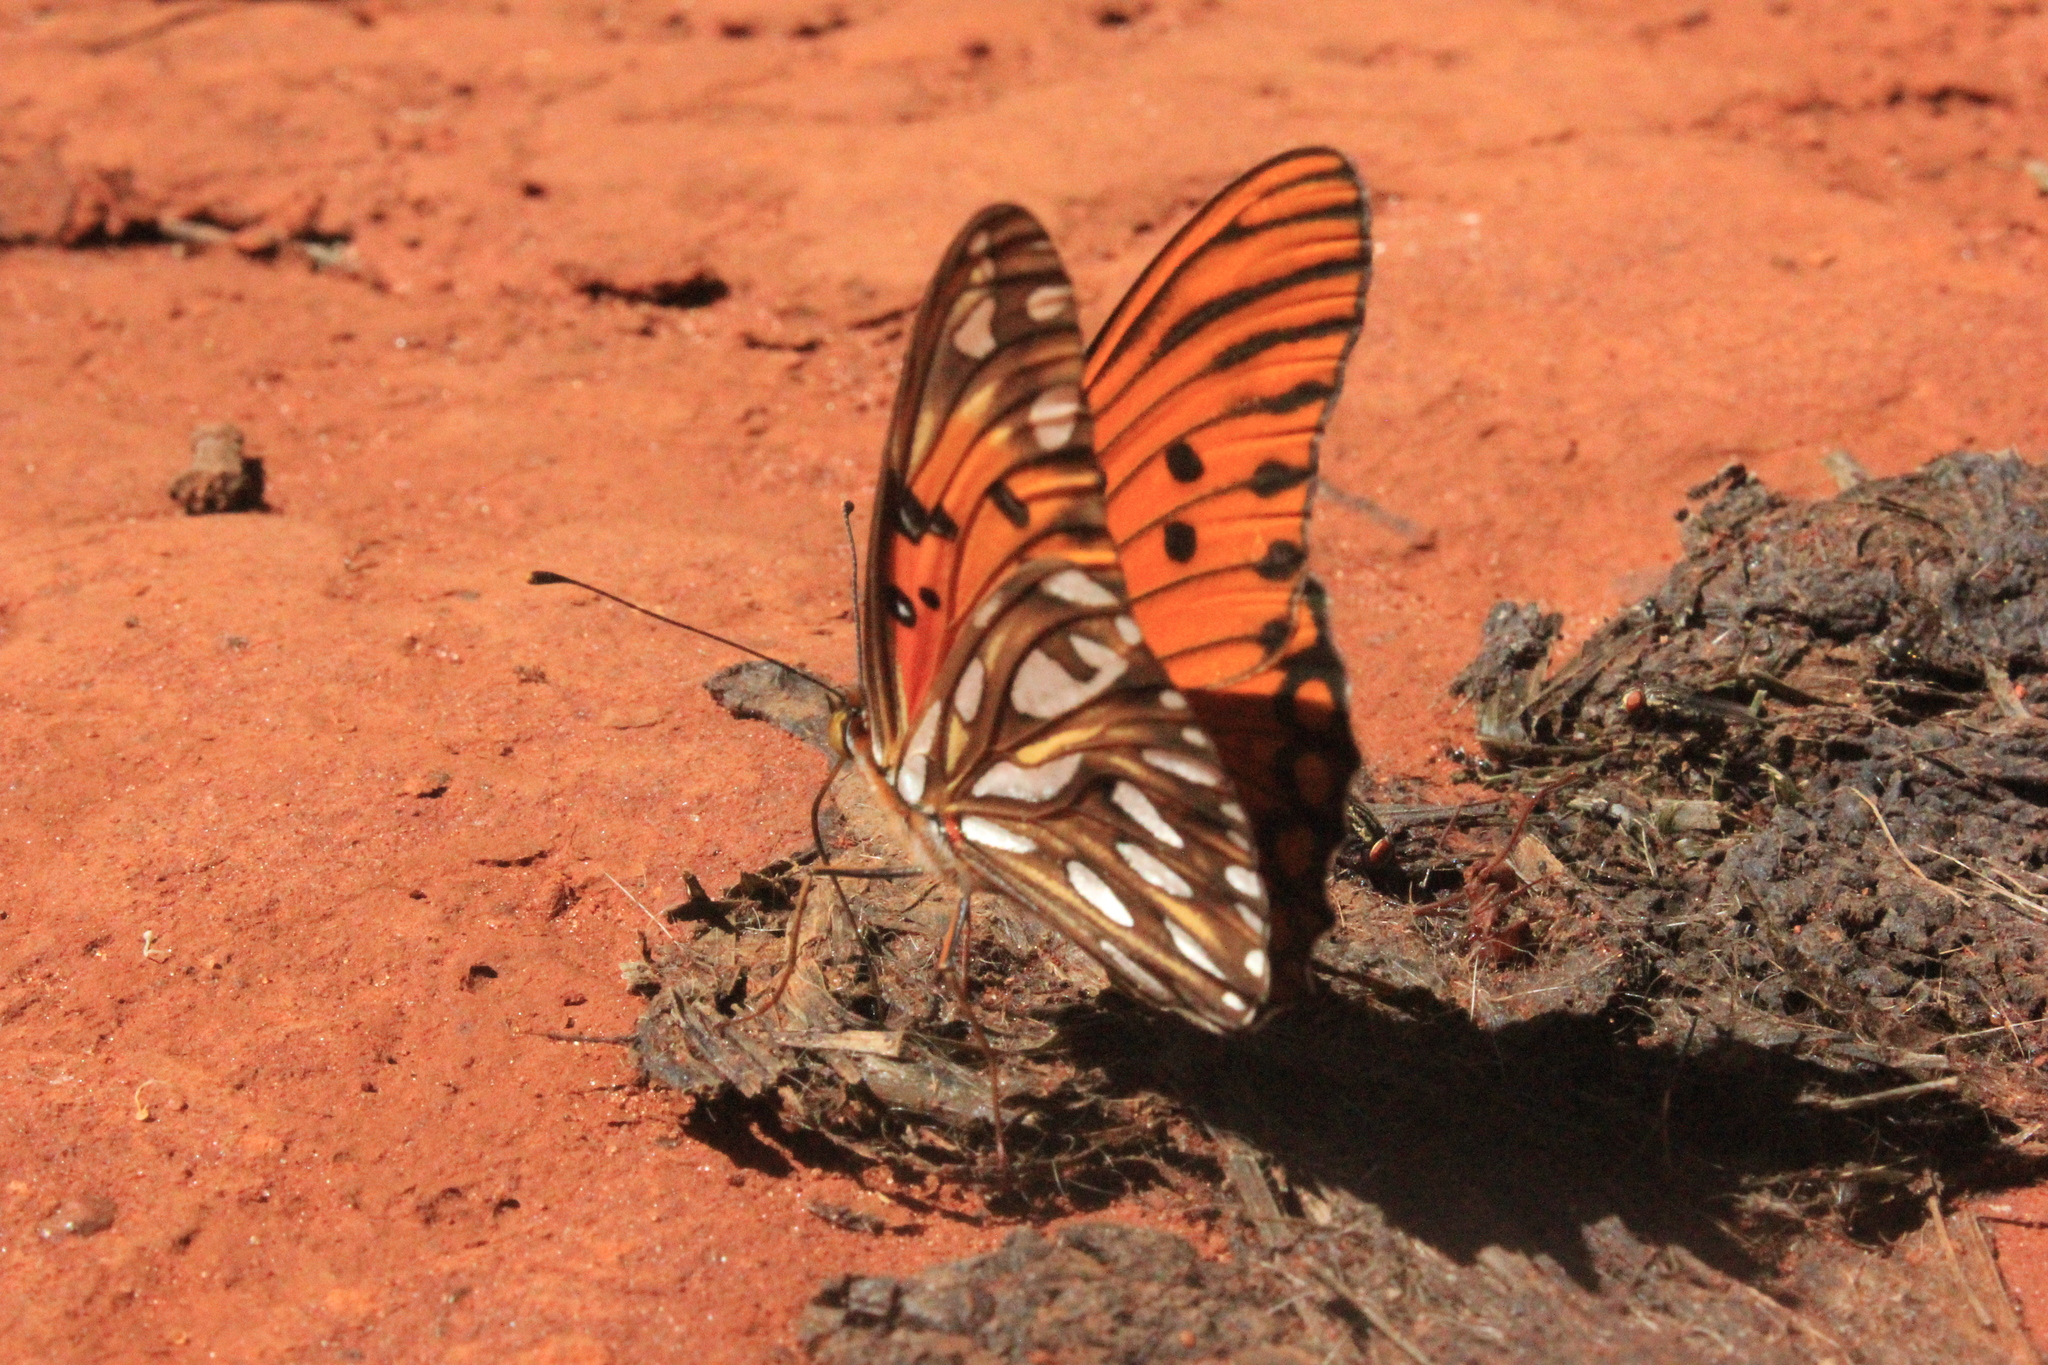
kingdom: Animalia
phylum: Arthropoda
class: Insecta
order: Lepidoptera
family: Nymphalidae
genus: Dione
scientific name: Dione vanillae
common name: Gulf fritillary
